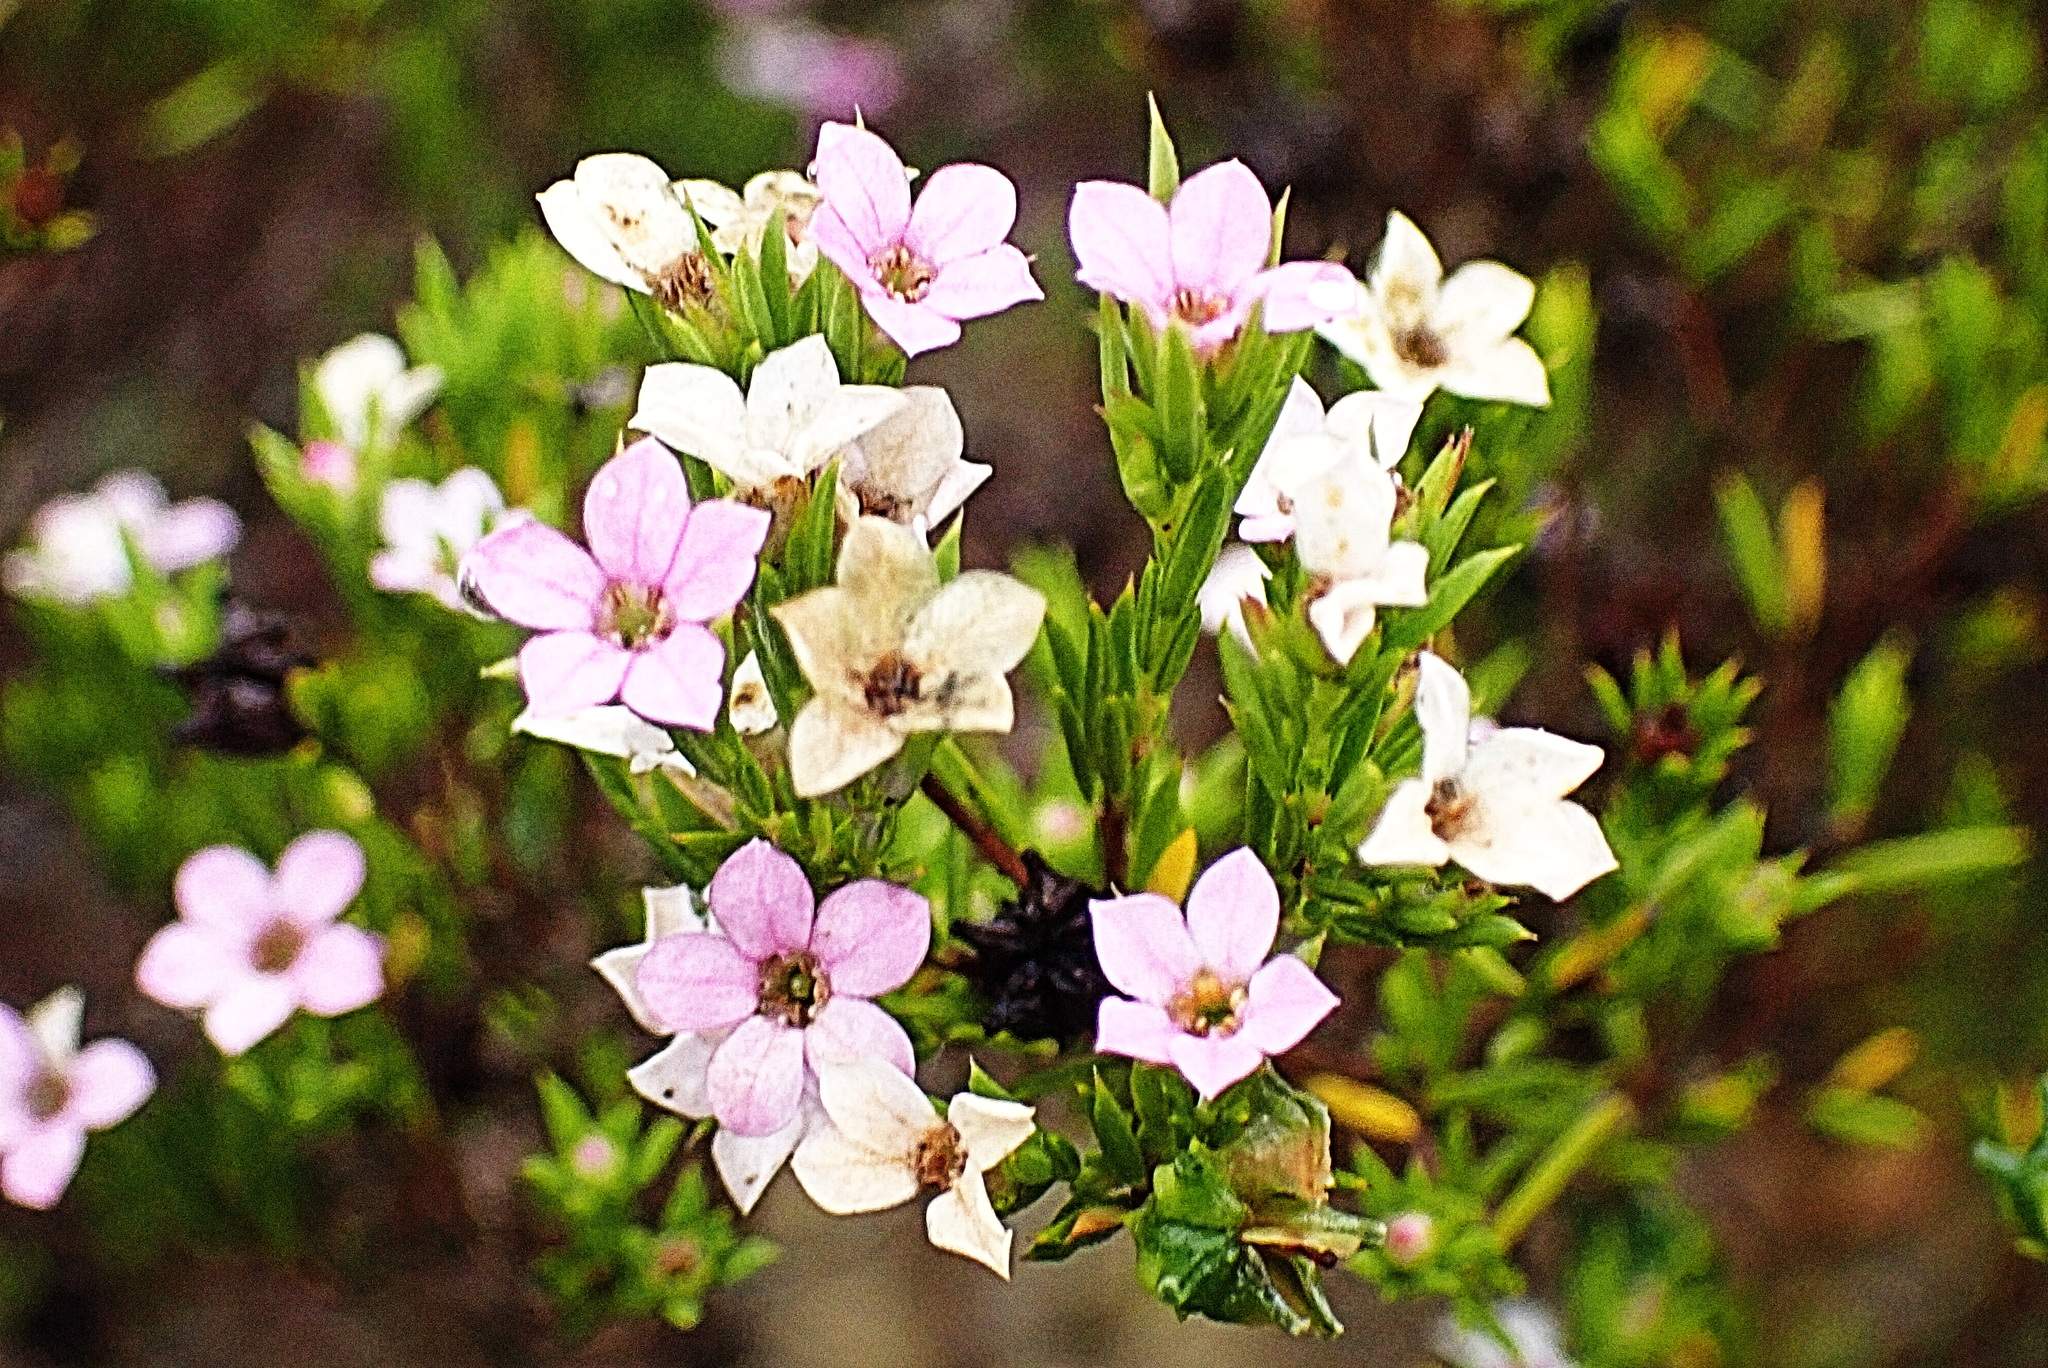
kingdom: Plantae
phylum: Tracheophyta
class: Magnoliopsida
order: Sapindales
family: Rutaceae
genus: Coleonema
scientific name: Coleonema pulchellum
